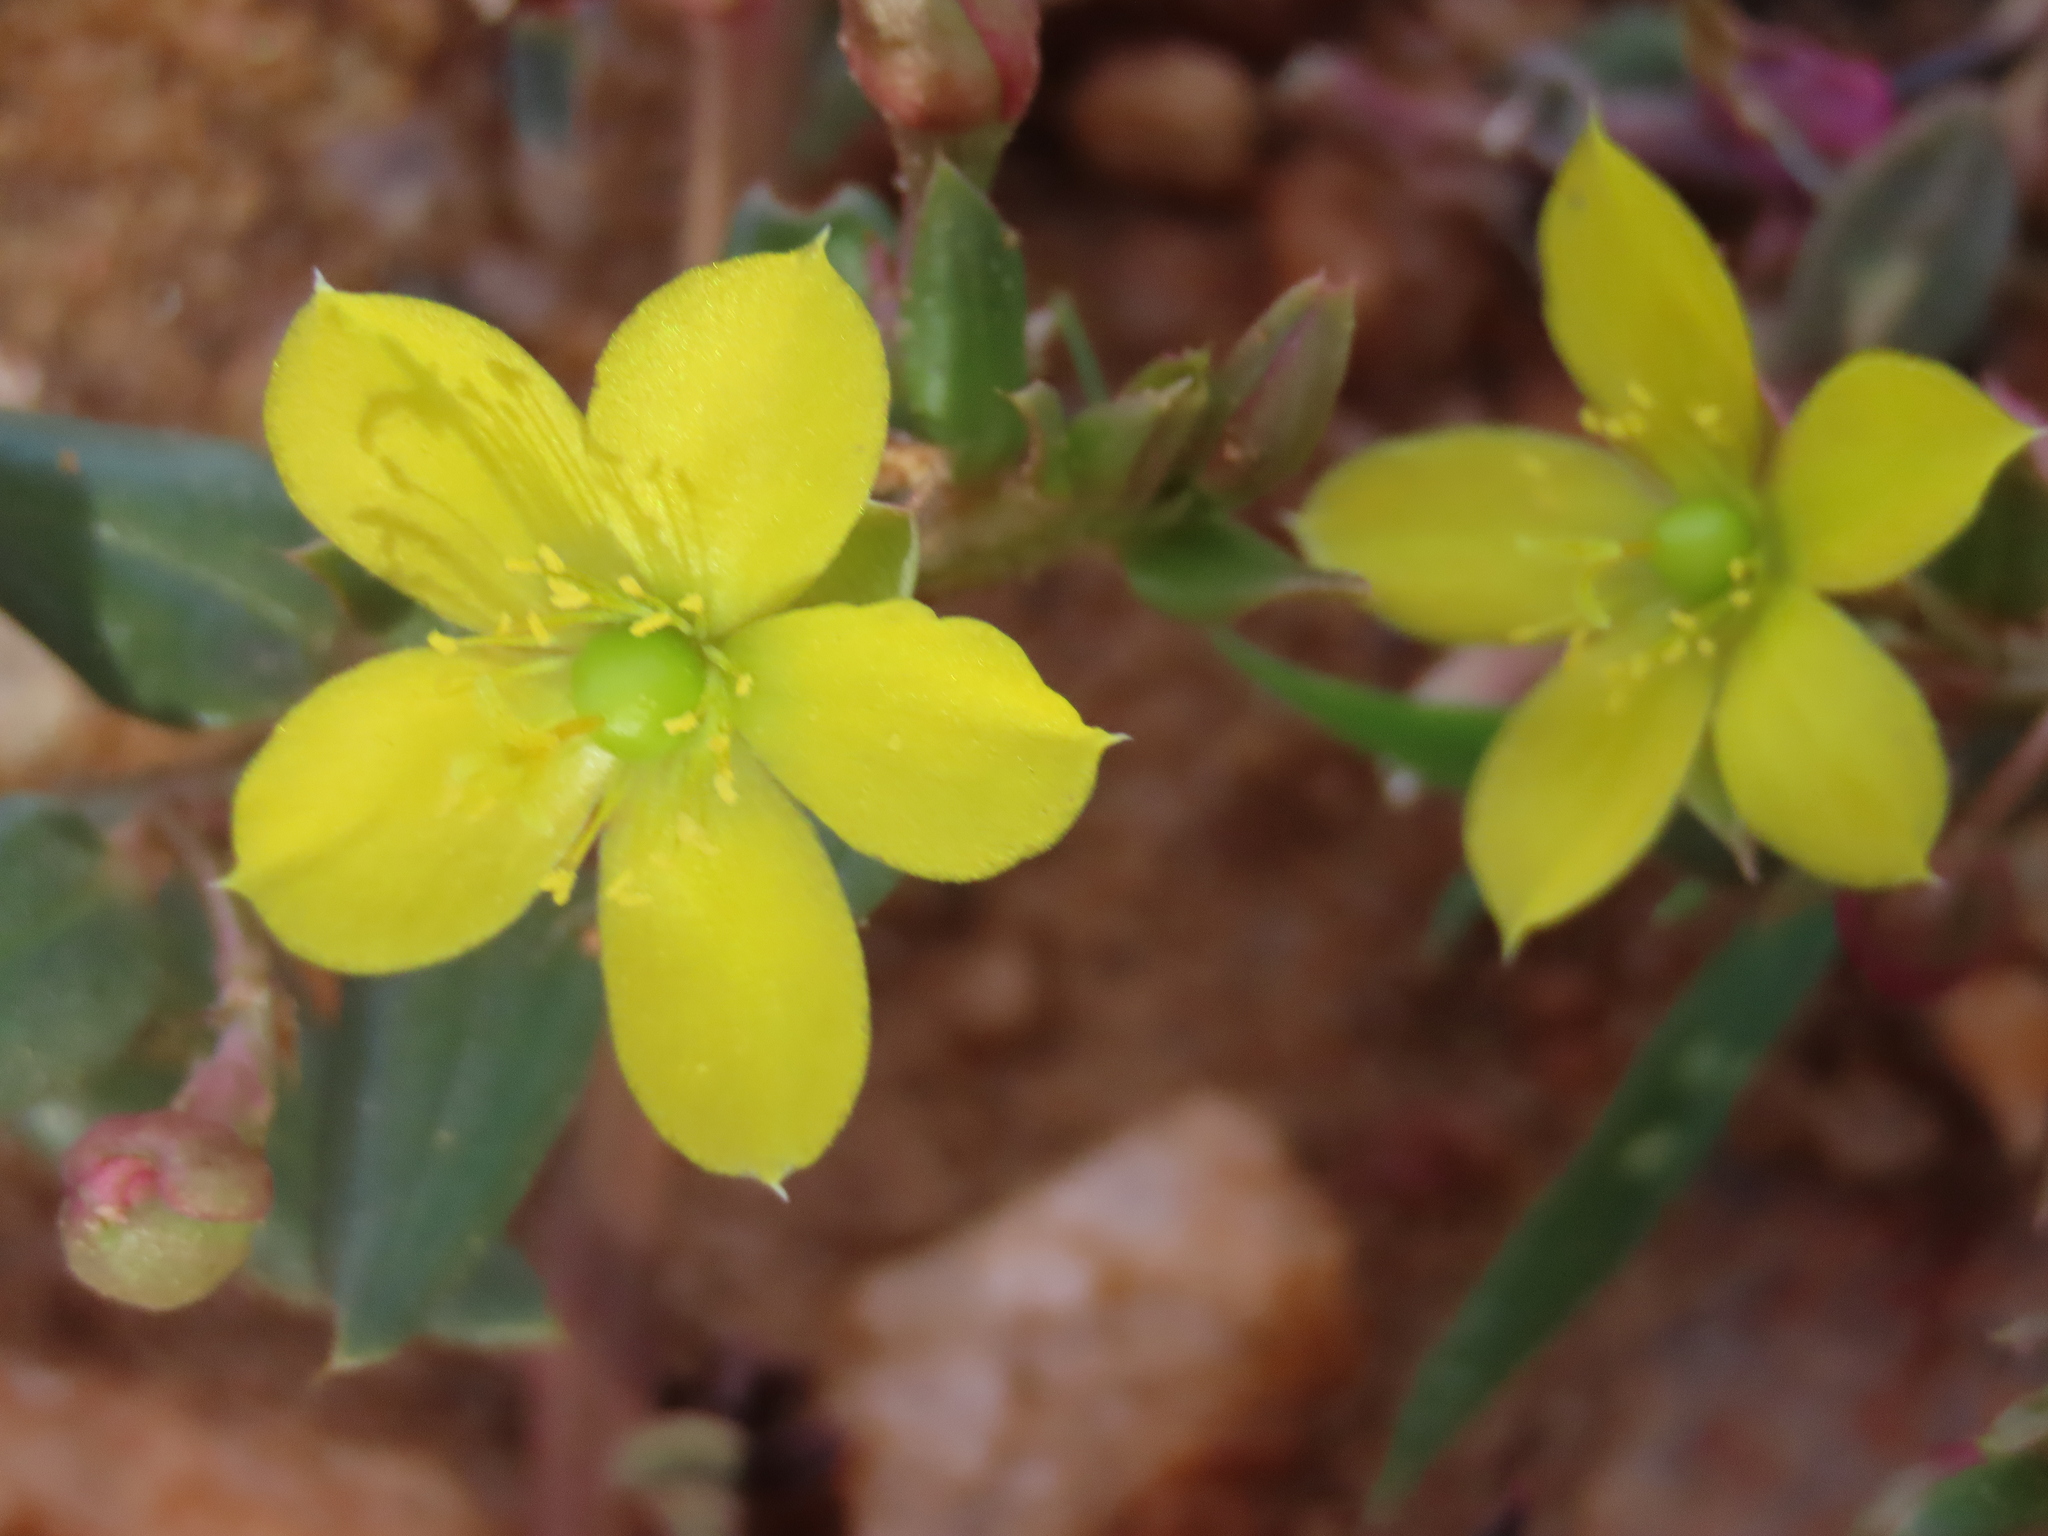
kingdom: Plantae
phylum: Tracheophyta
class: Magnoliopsida
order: Caryophyllales
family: Talinaceae
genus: Talinum
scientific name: Talinum caffrum
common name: Flameflower
